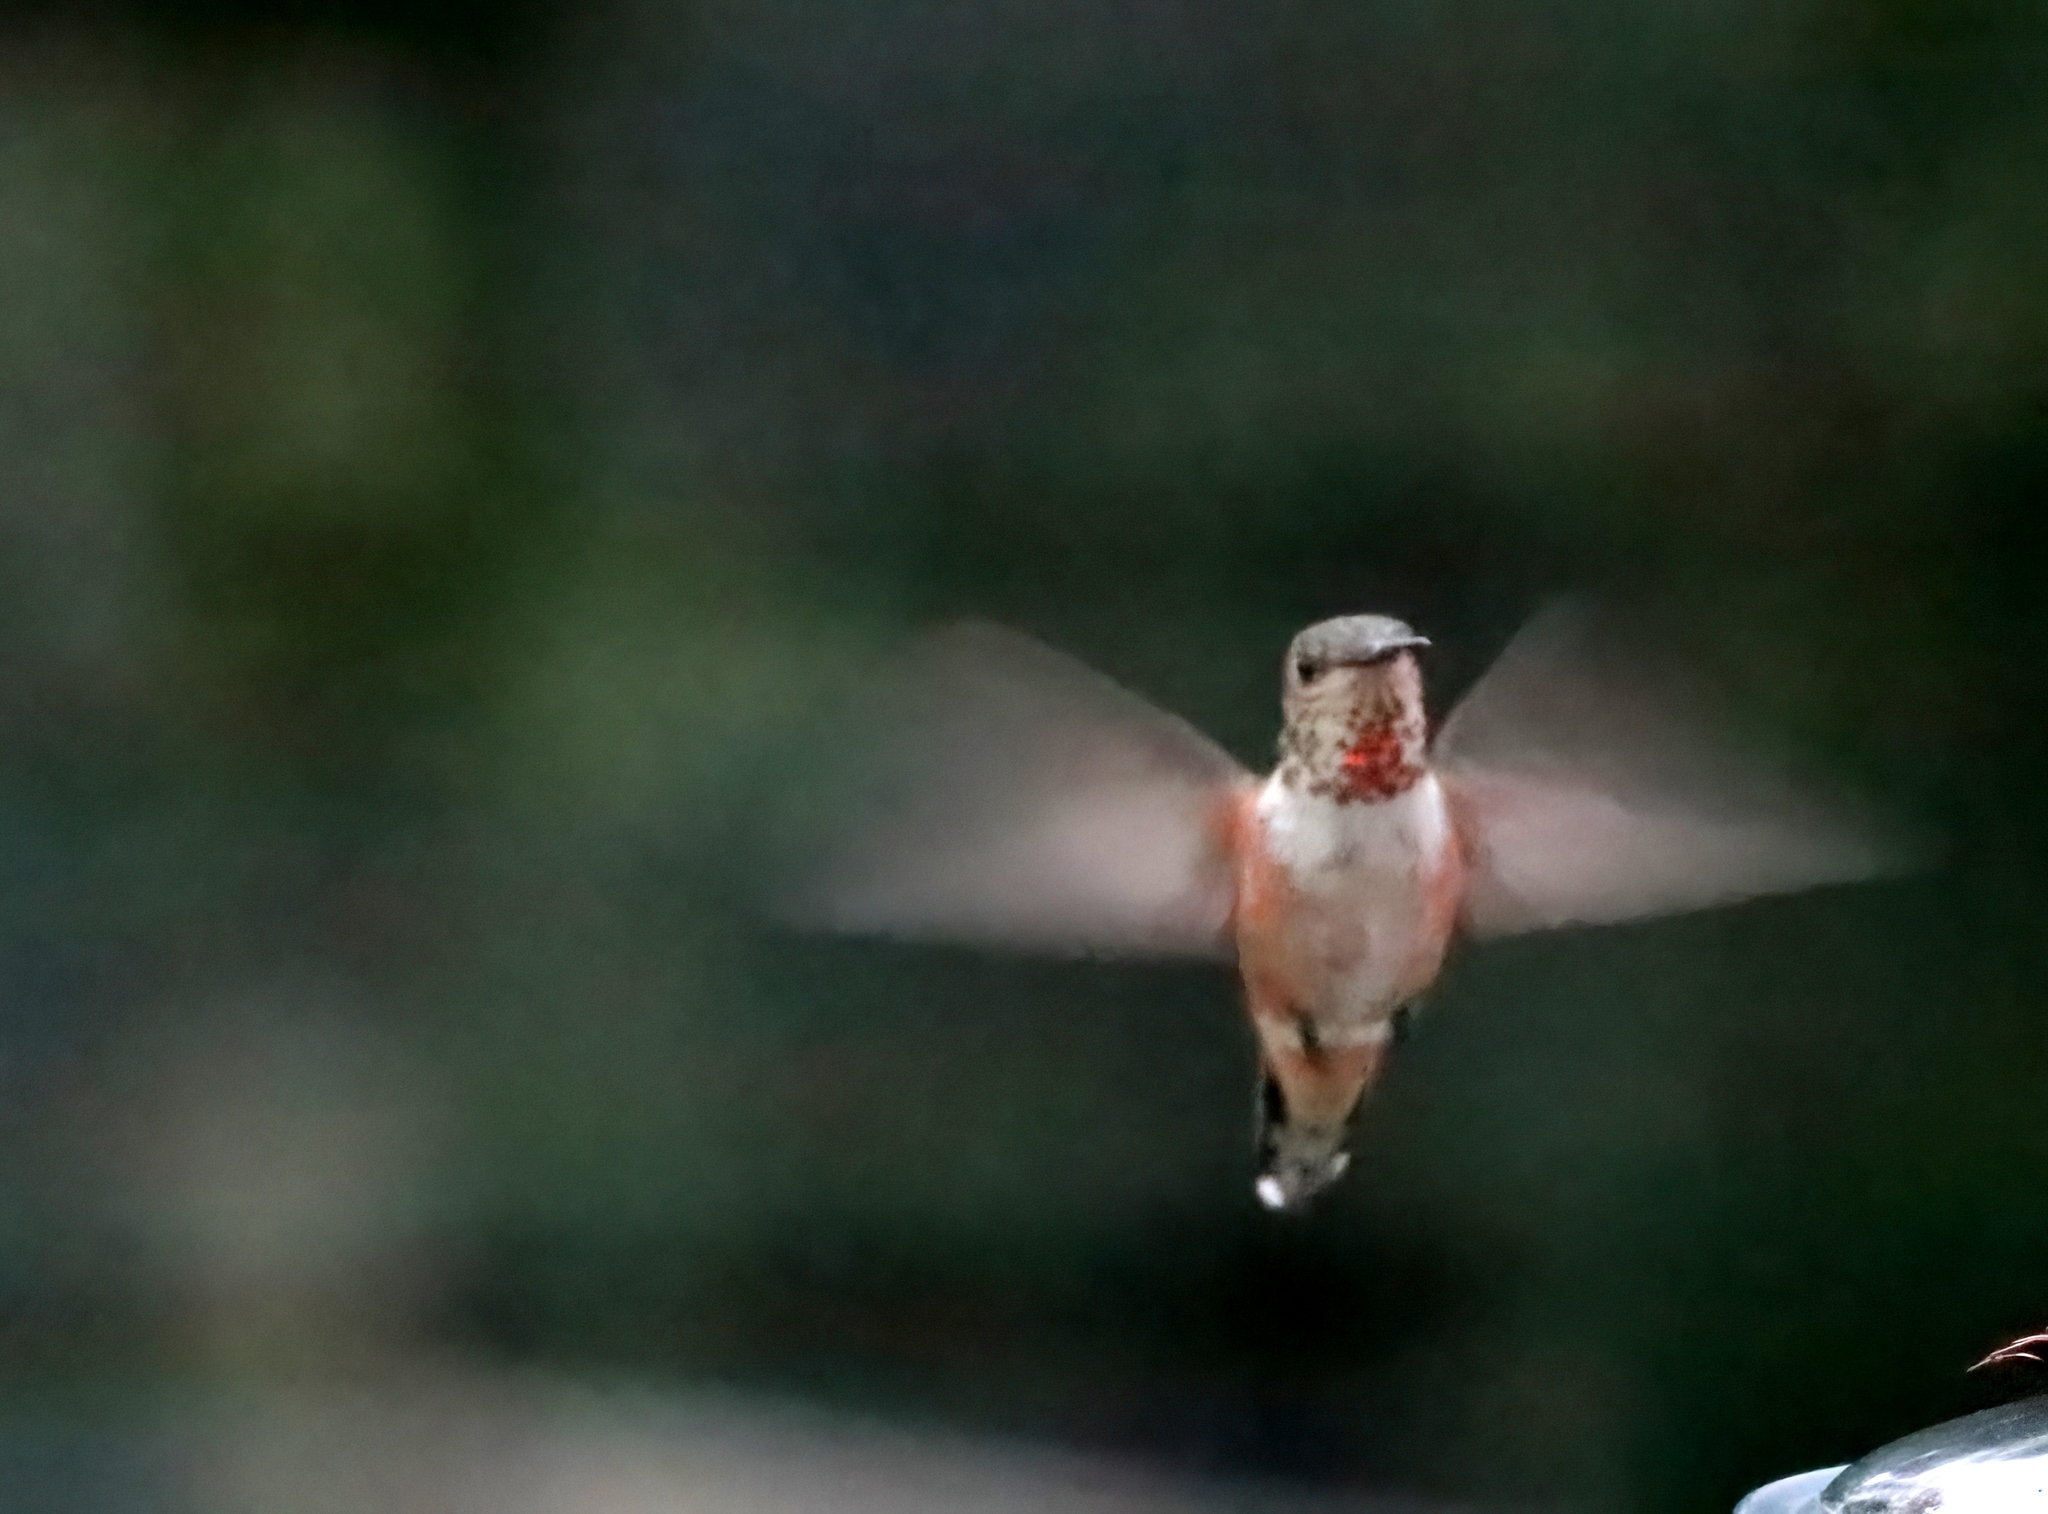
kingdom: Animalia
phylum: Chordata
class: Aves
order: Apodiformes
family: Trochilidae
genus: Selasphorus
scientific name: Selasphorus rufus
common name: Rufous hummingbird
